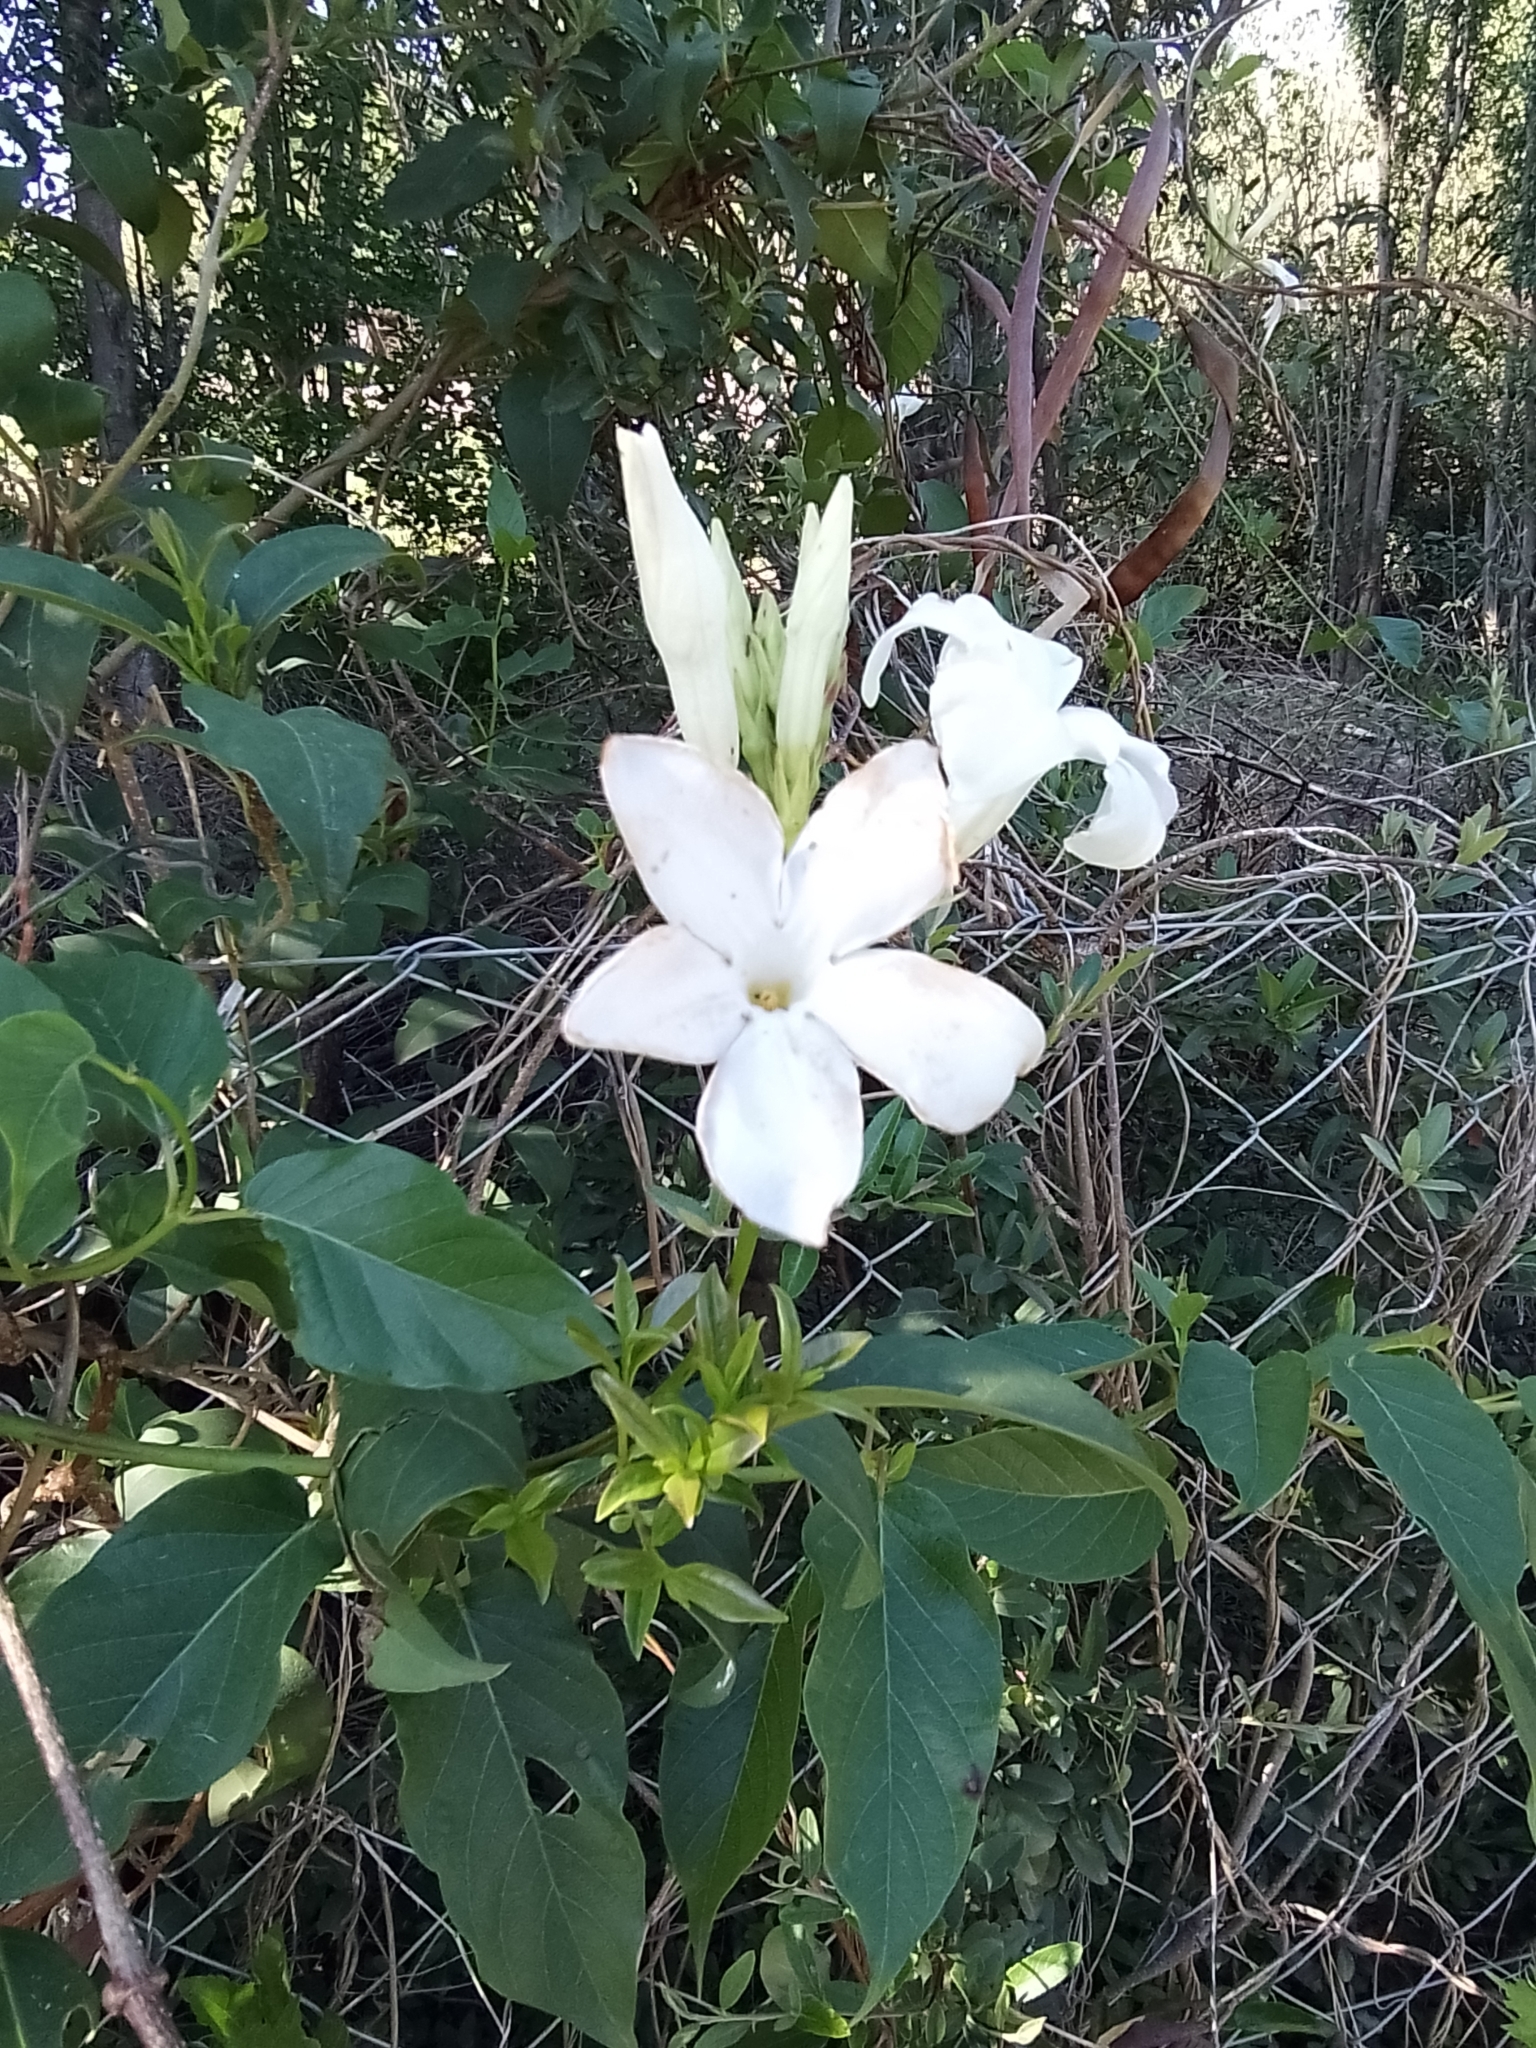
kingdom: Plantae
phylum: Tracheophyta
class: Magnoliopsida
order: Gentianales
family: Apocynaceae
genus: Mandevilla
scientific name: Mandevilla laxa
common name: Chilean-jasmine
